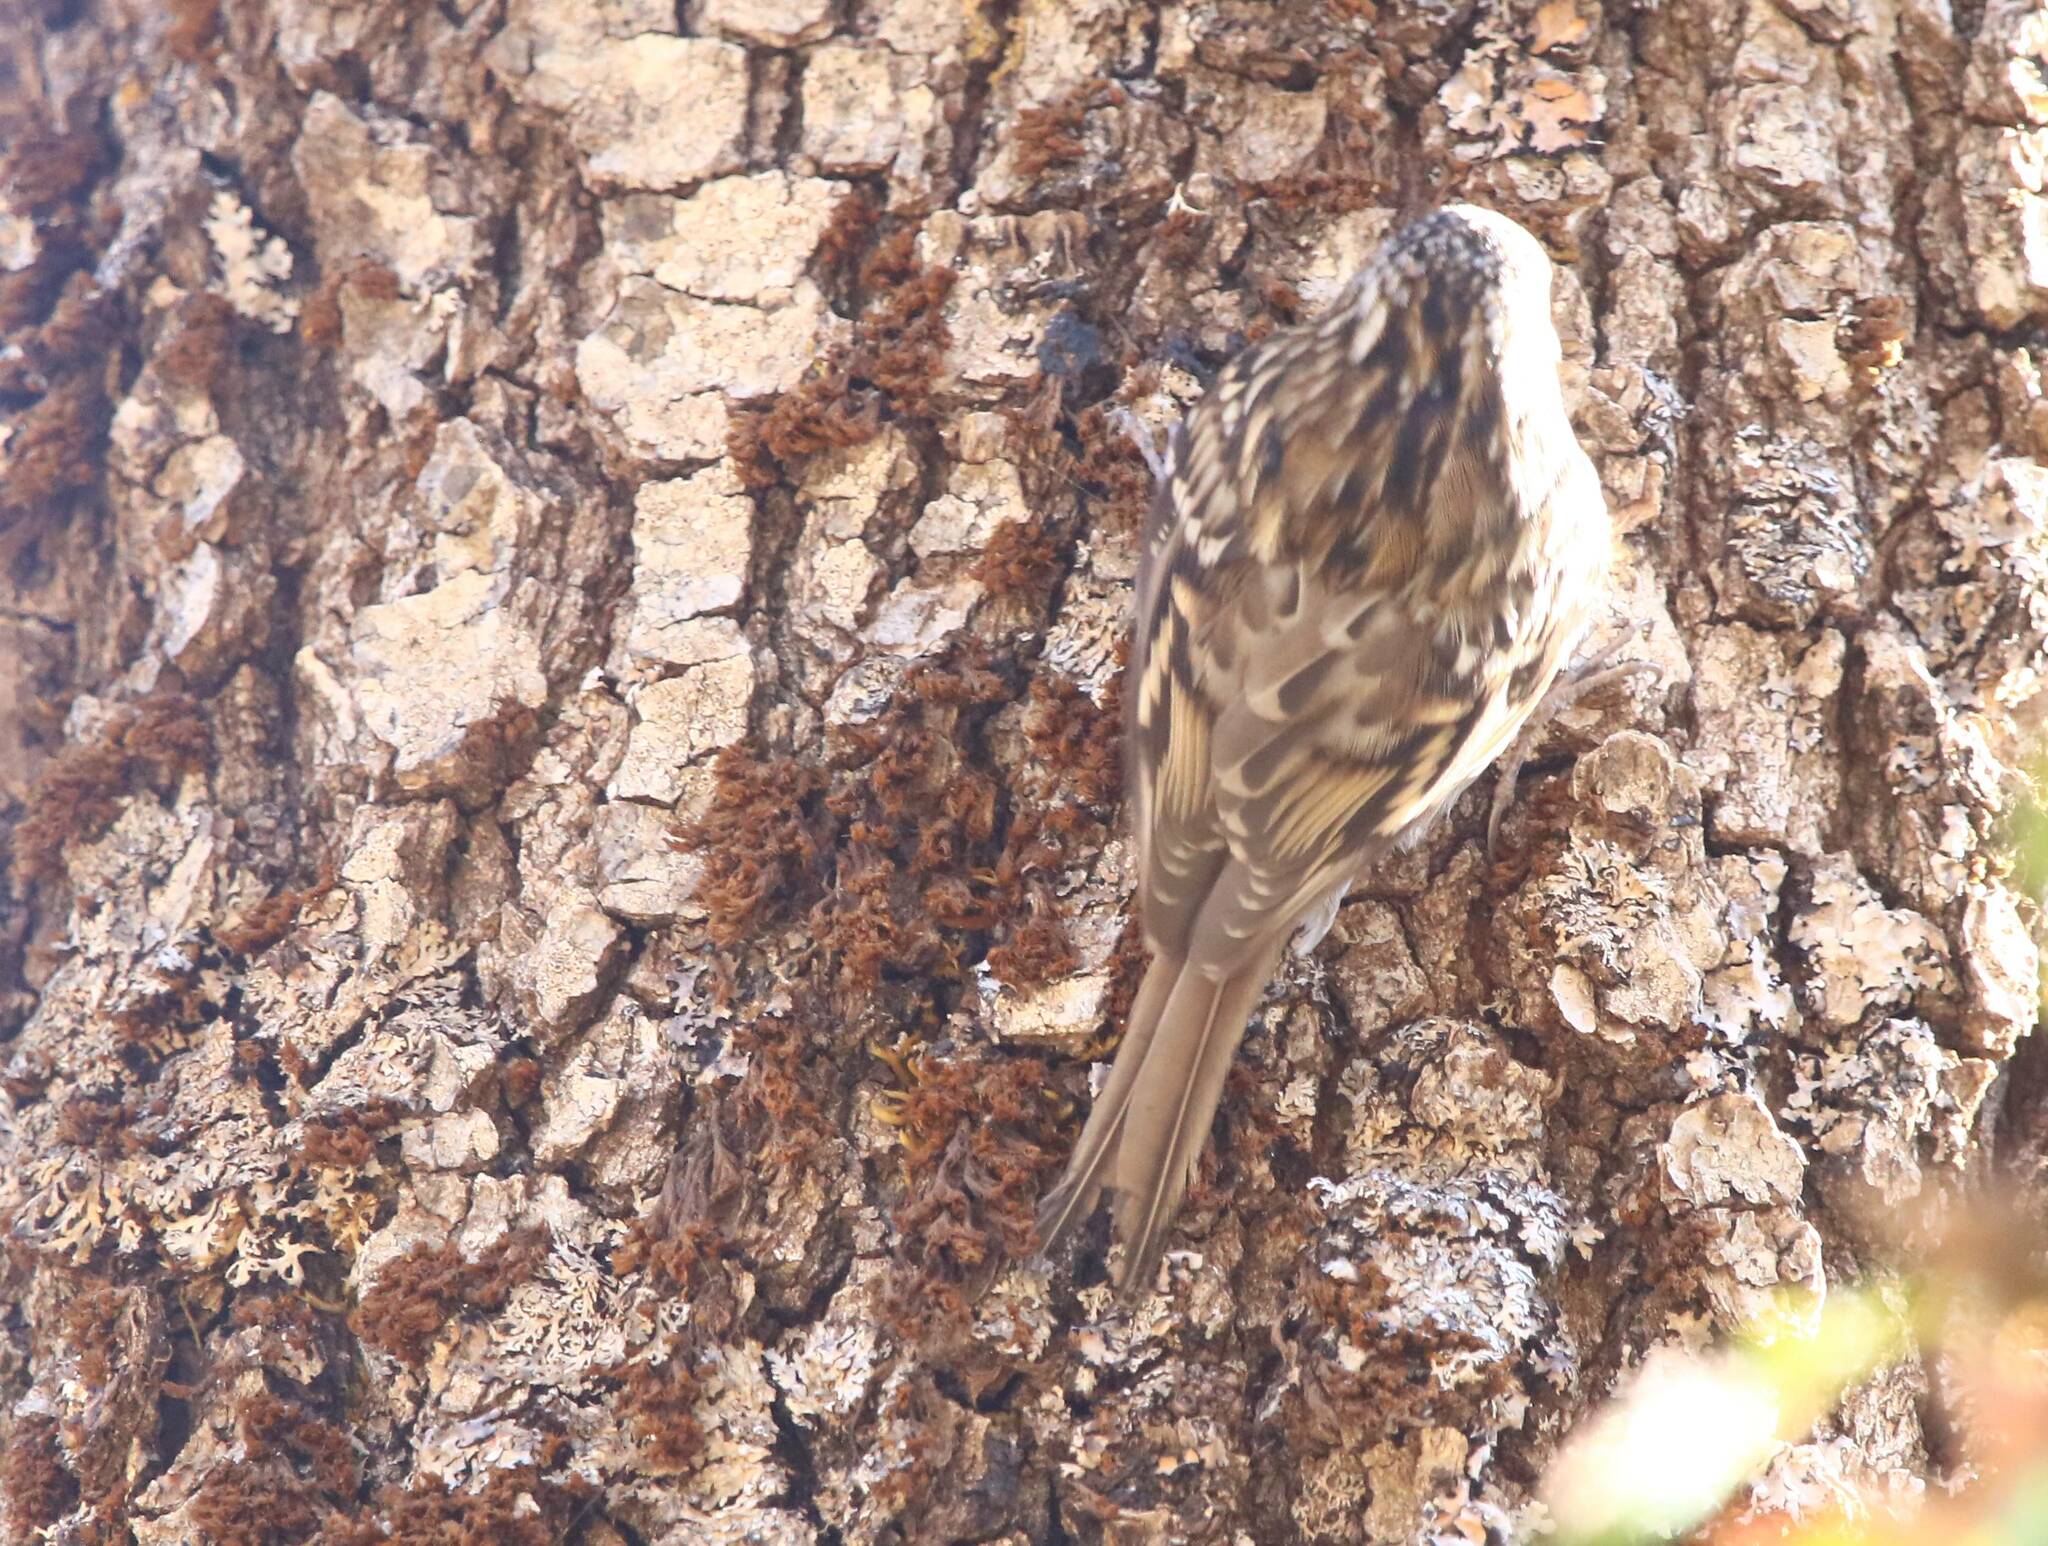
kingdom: Animalia
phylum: Chordata
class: Aves
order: Passeriformes
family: Certhiidae
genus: Certhia
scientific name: Certhia brachydactyla
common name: Short-toed treecreeper
